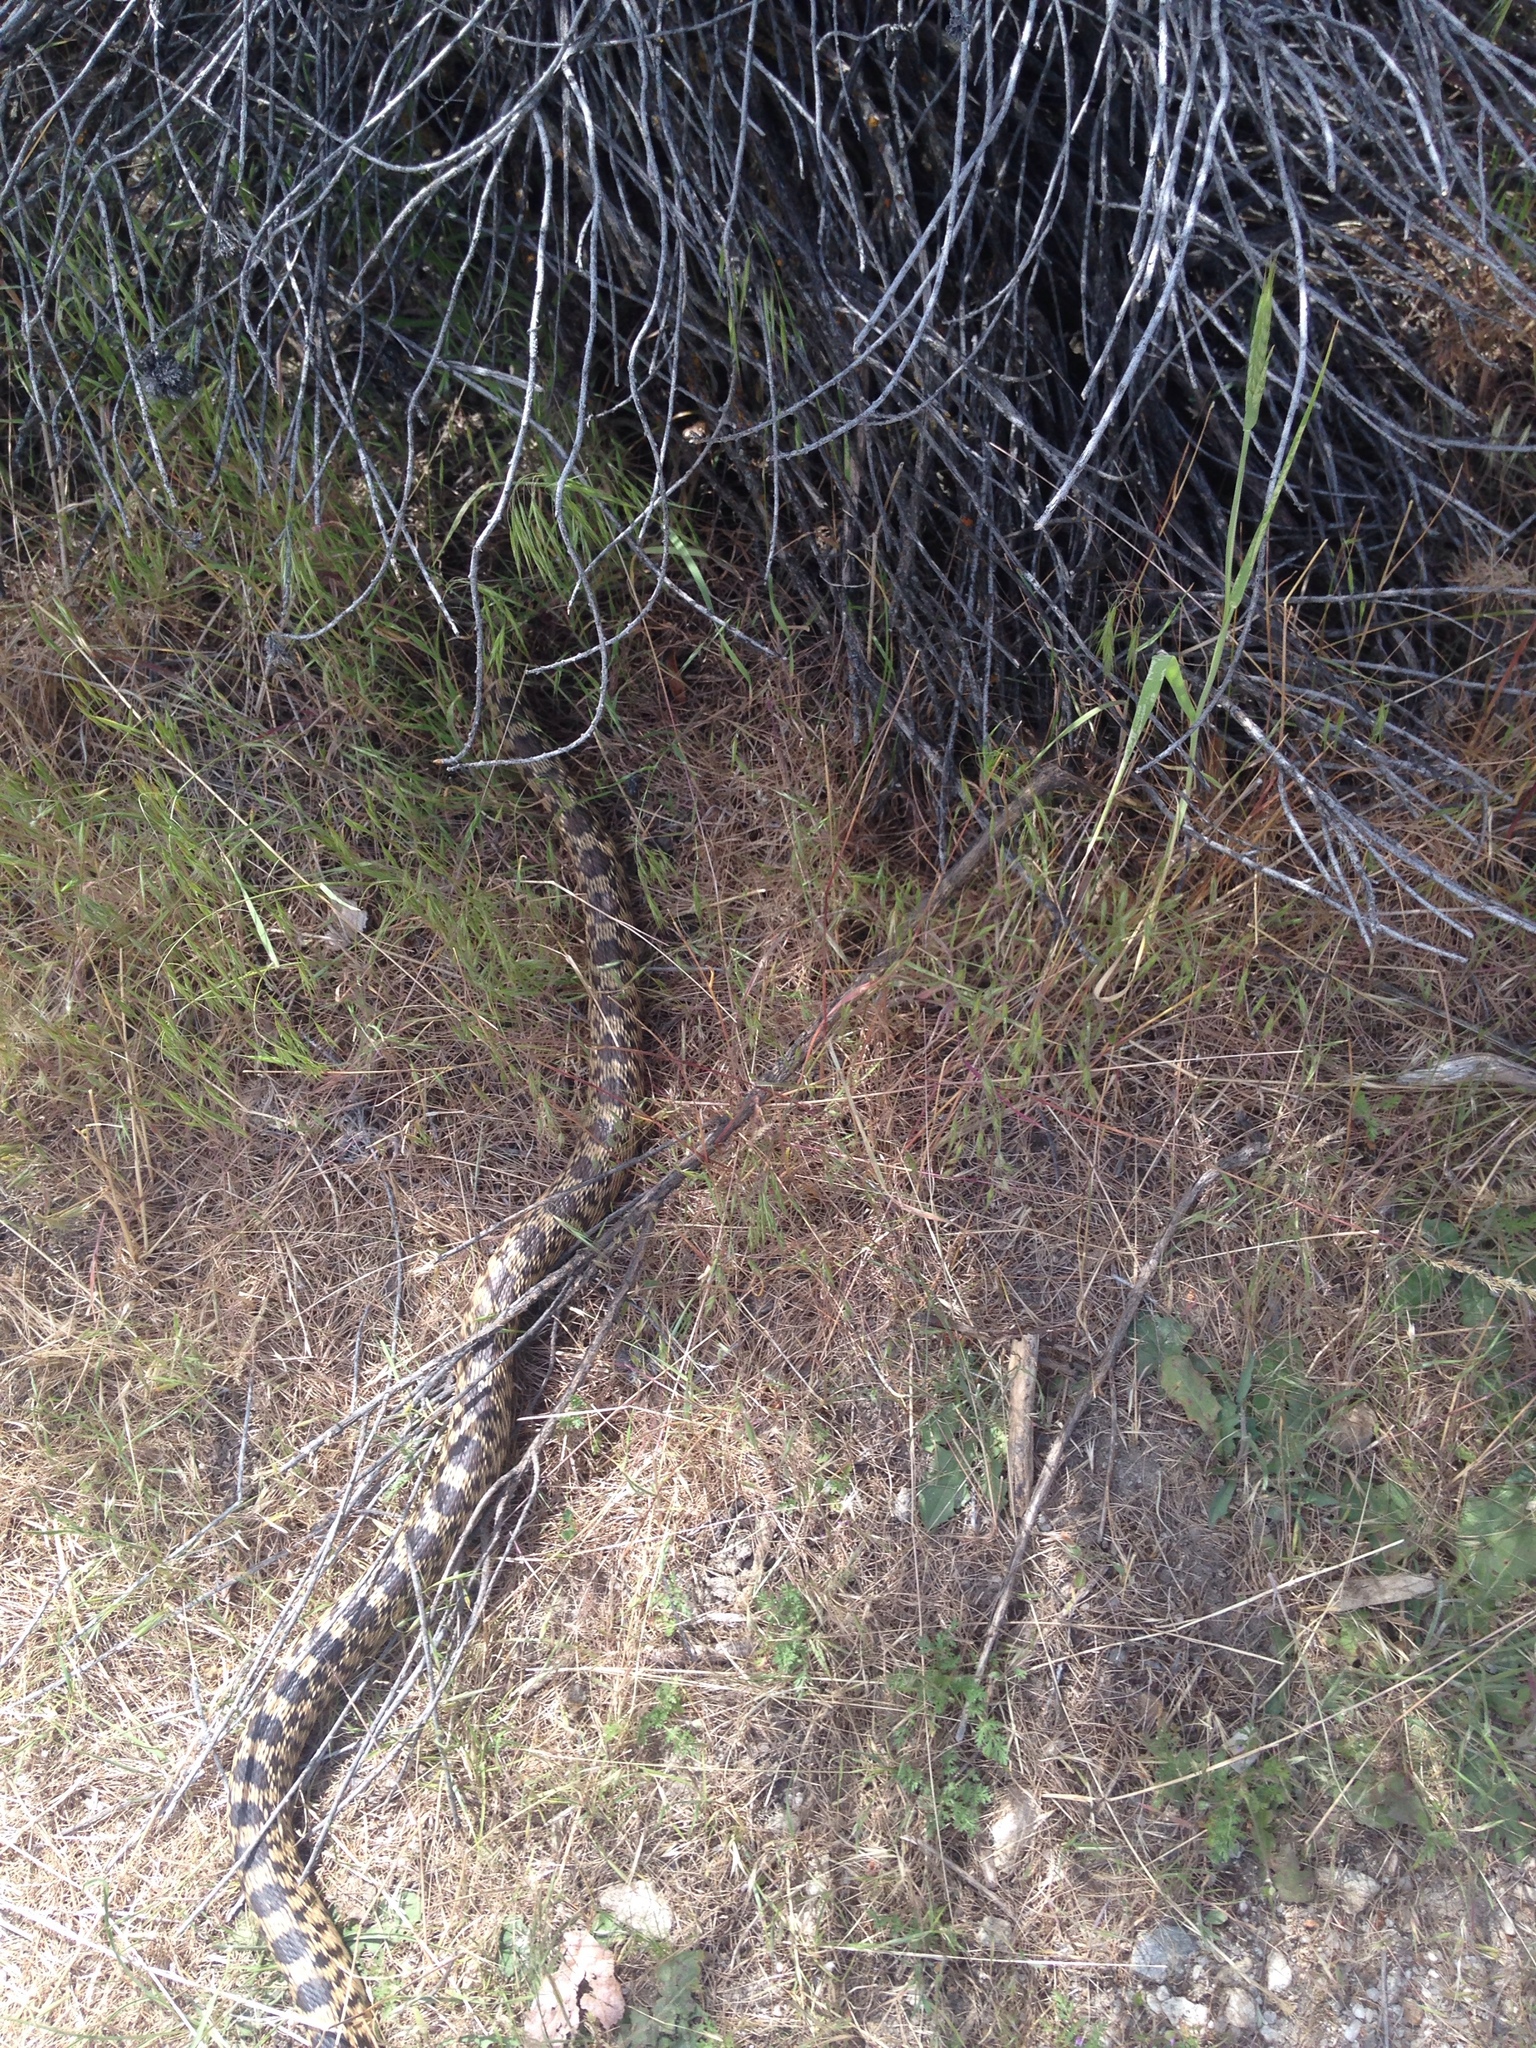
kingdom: Animalia
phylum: Chordata
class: Squamata
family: Colubridae
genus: Pituophis
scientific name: Pituophis catenifer
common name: Gopher snake
